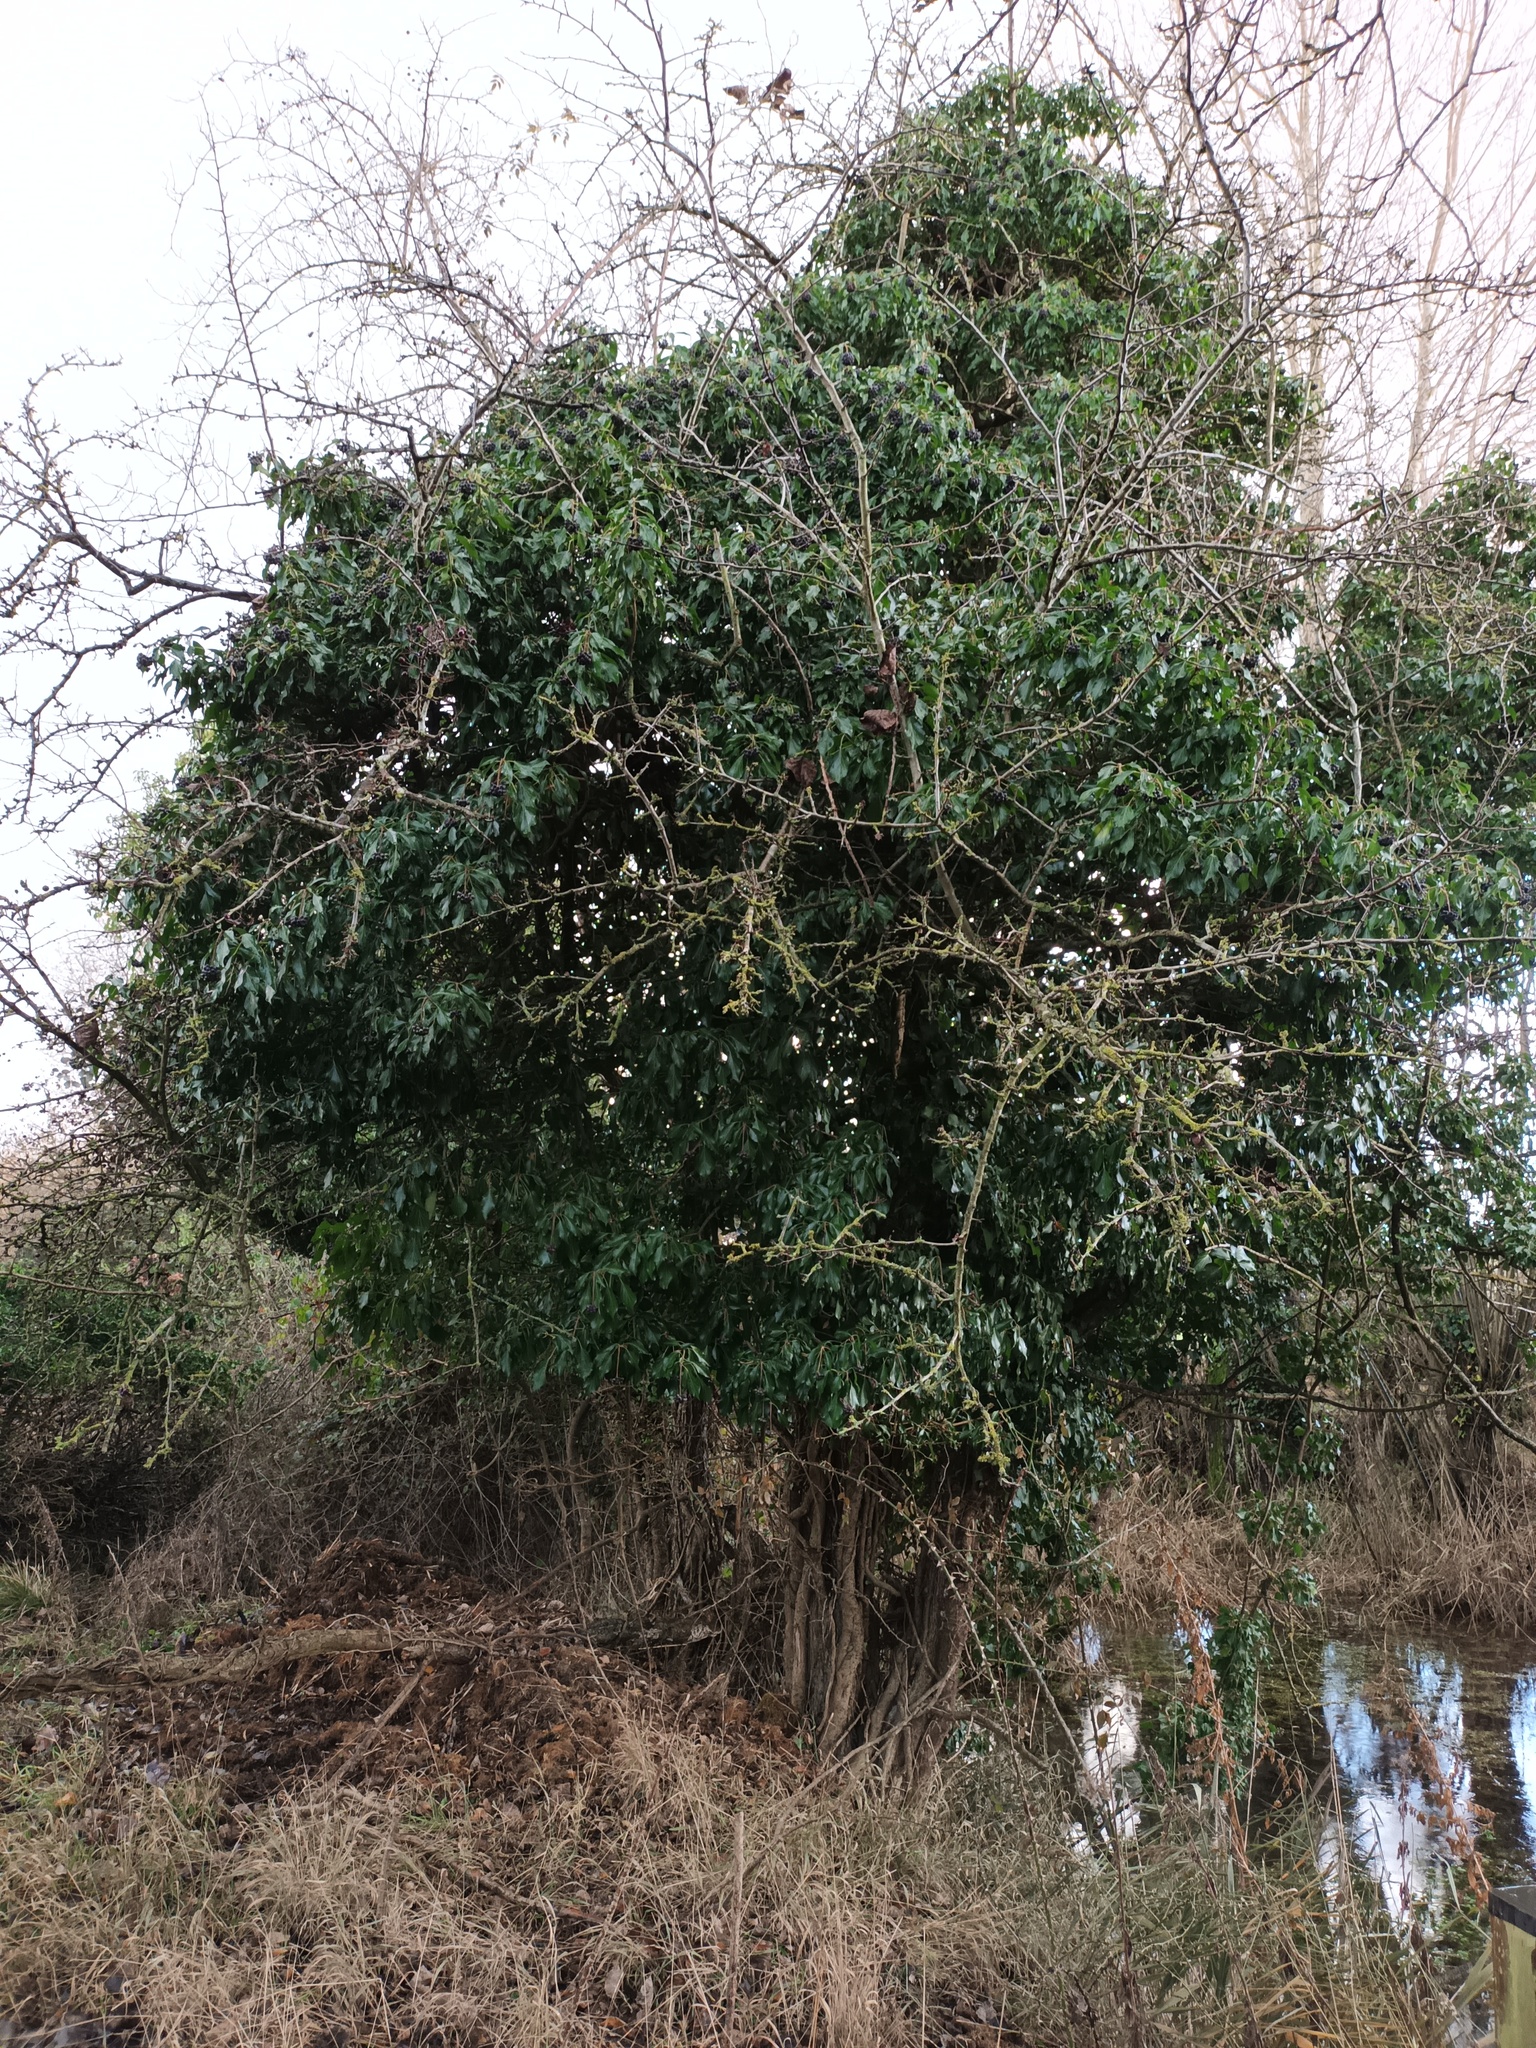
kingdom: Plantae
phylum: Tracheophyta
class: Magnoliopsida
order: Apiales
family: Araliaceae
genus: Hedera
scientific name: Hedera helix
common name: Ivy
